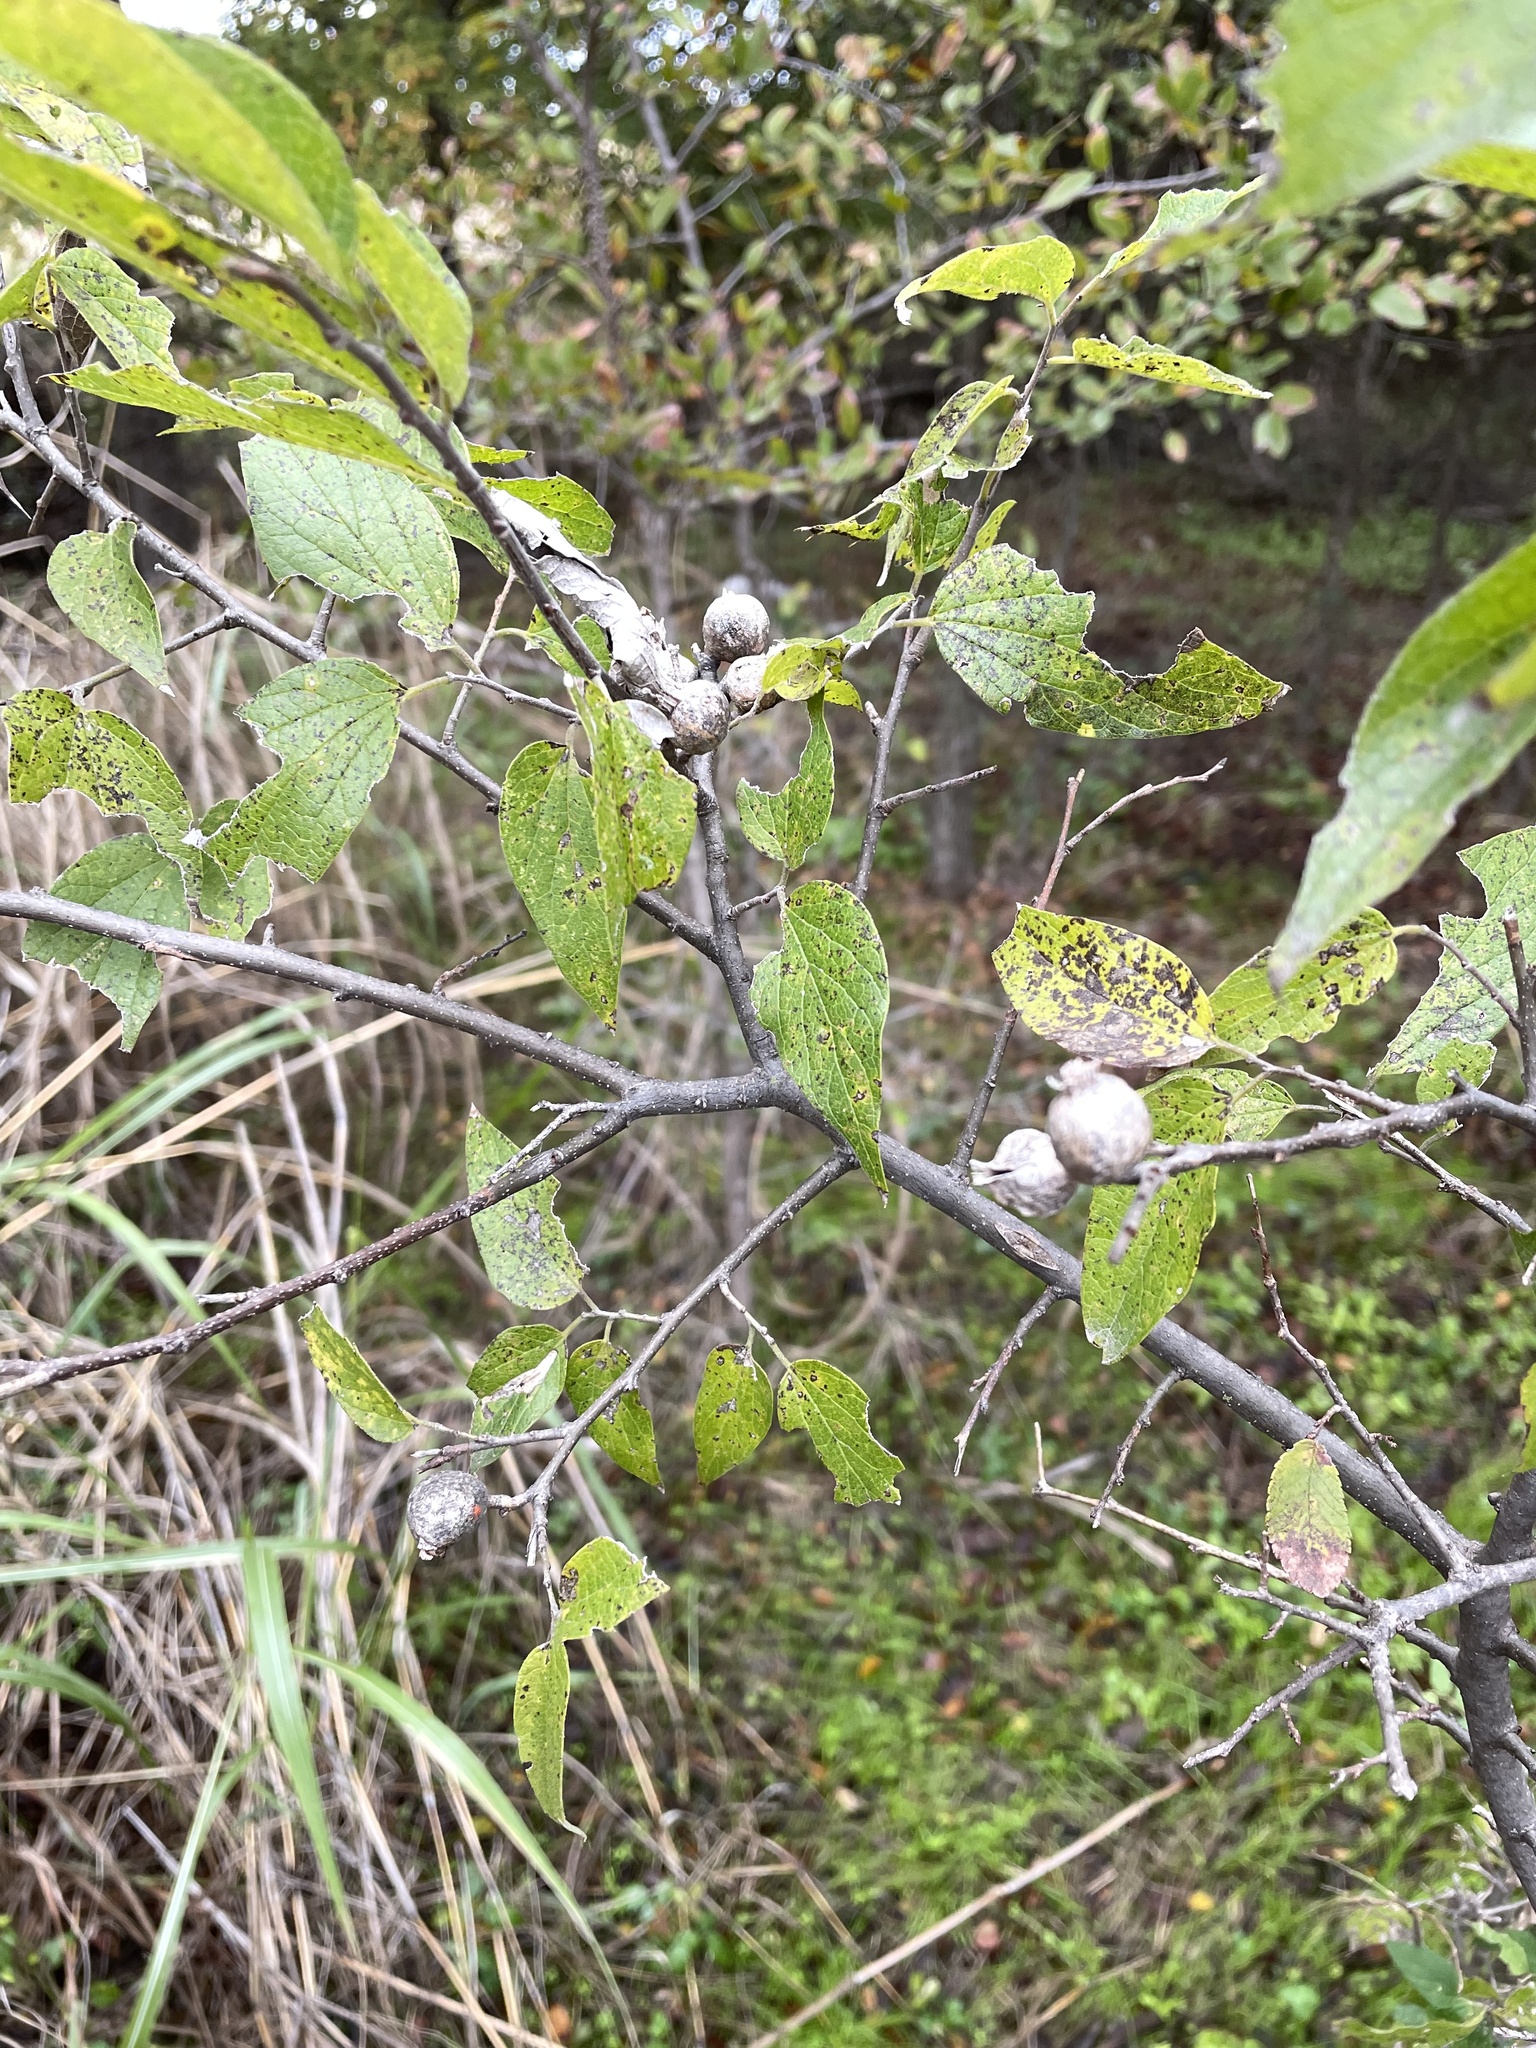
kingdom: Animalia
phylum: Arthropoda
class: Insecta
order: Hemiptera
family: Aphalaridae
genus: Pachypsylla
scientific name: Pachypsylla venusta
